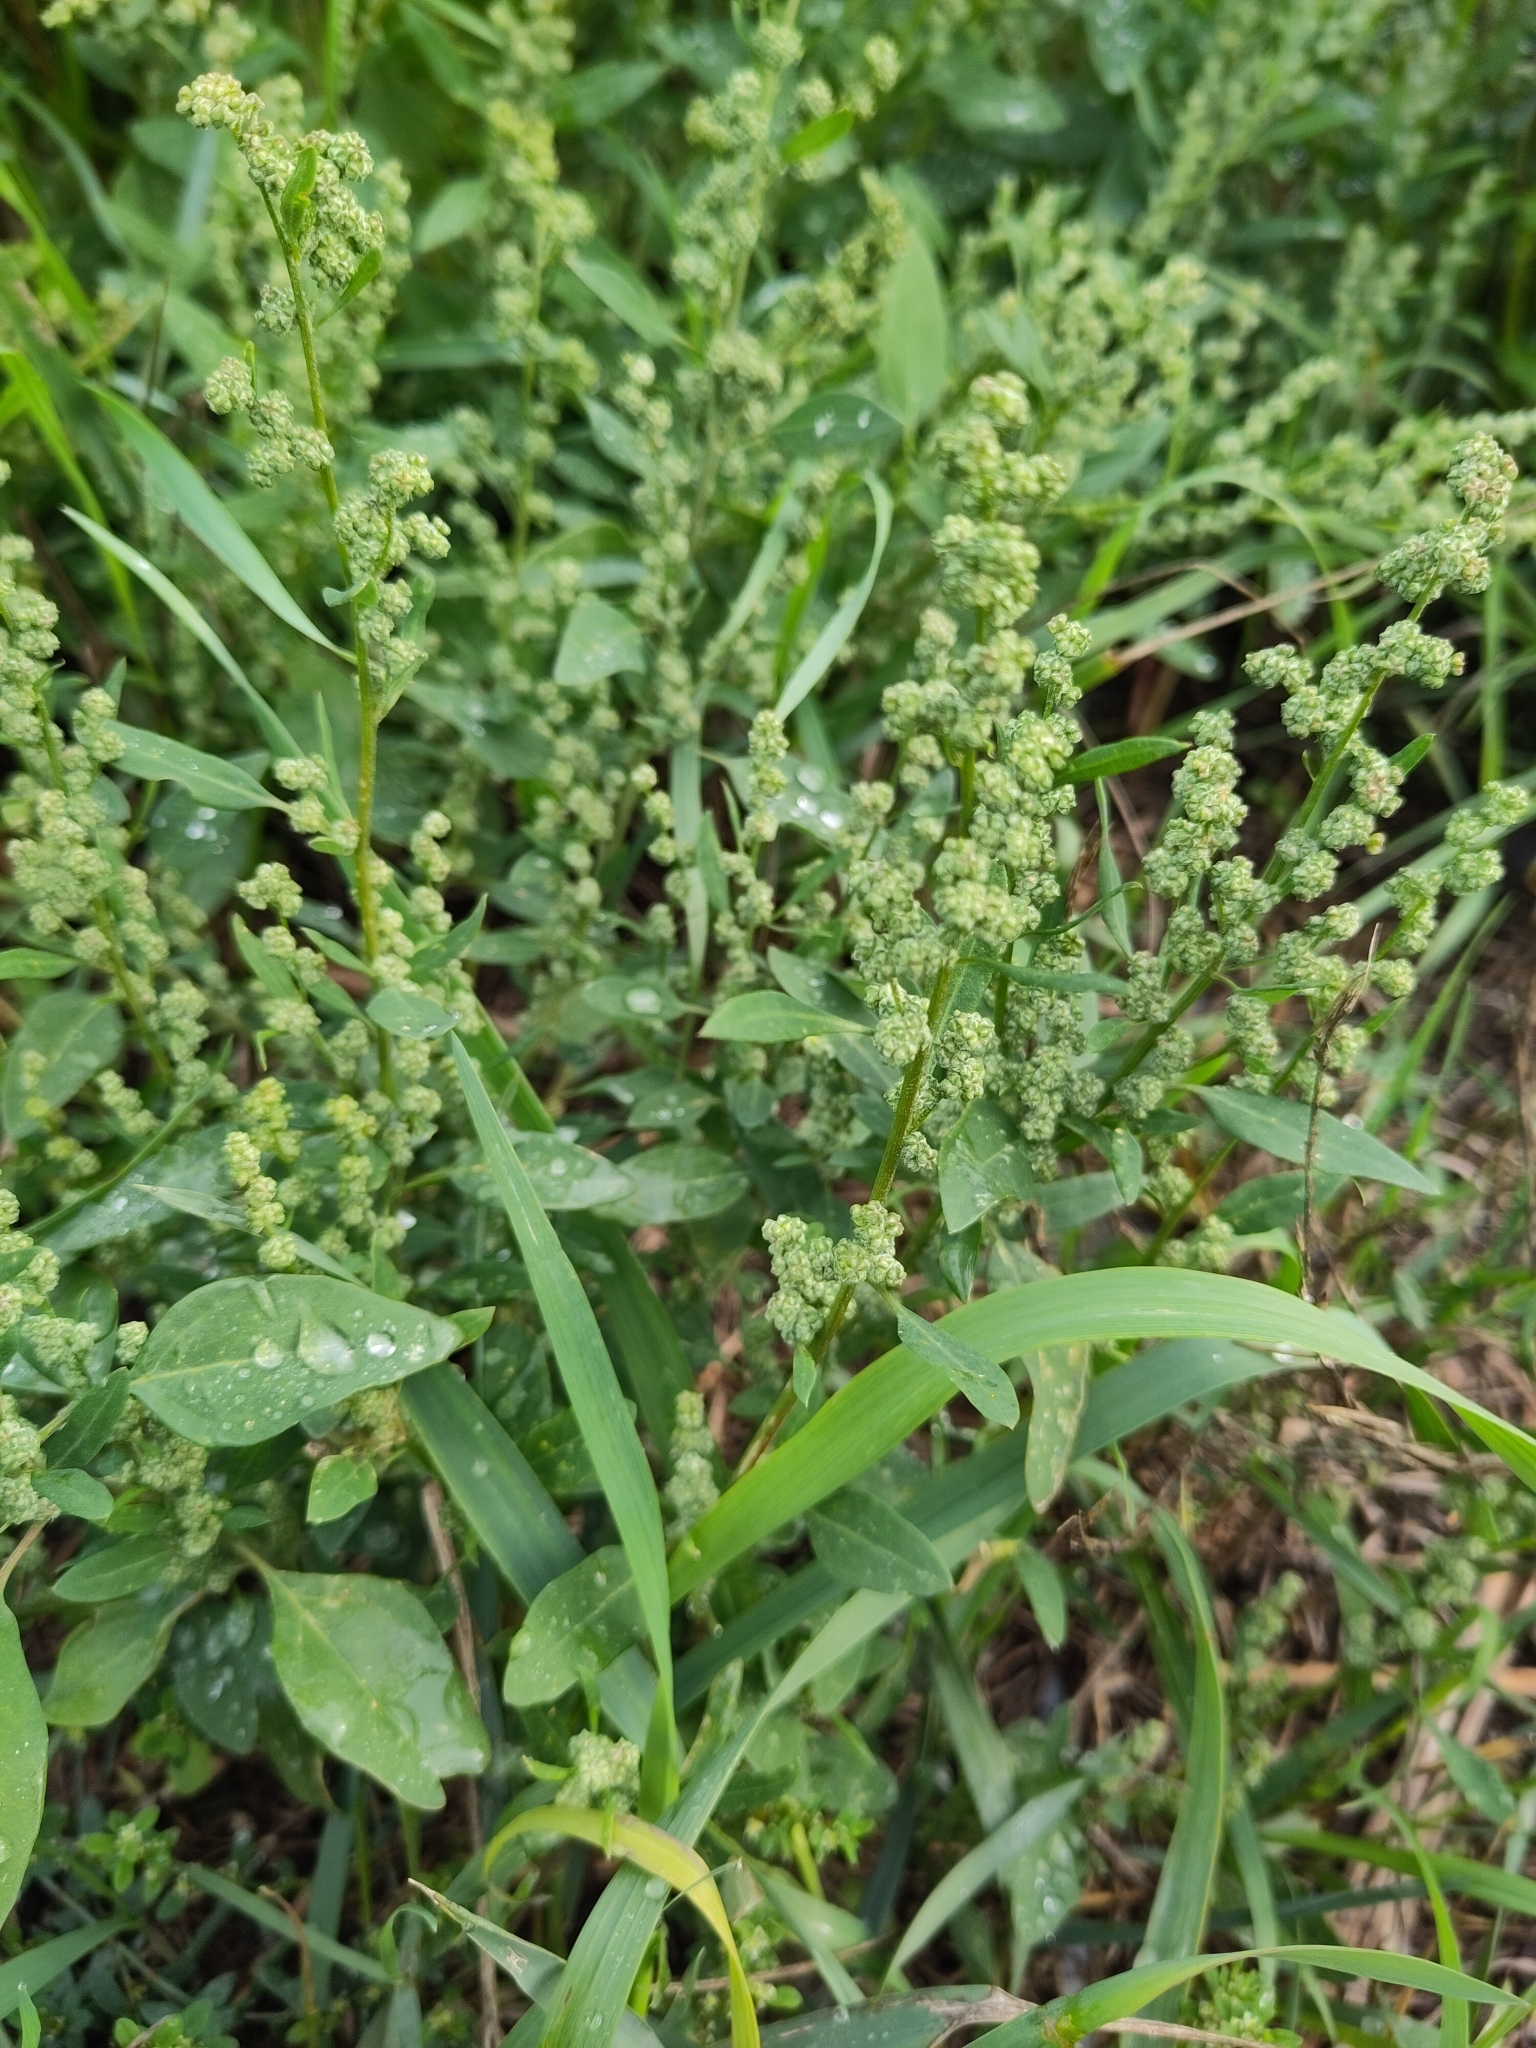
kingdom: Plantae
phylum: Tracheophyta
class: Magnoliopsida
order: Caryophyllales
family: Amaranthaceae
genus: Chenopodium
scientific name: Chenopodium album
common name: Fat-hen
